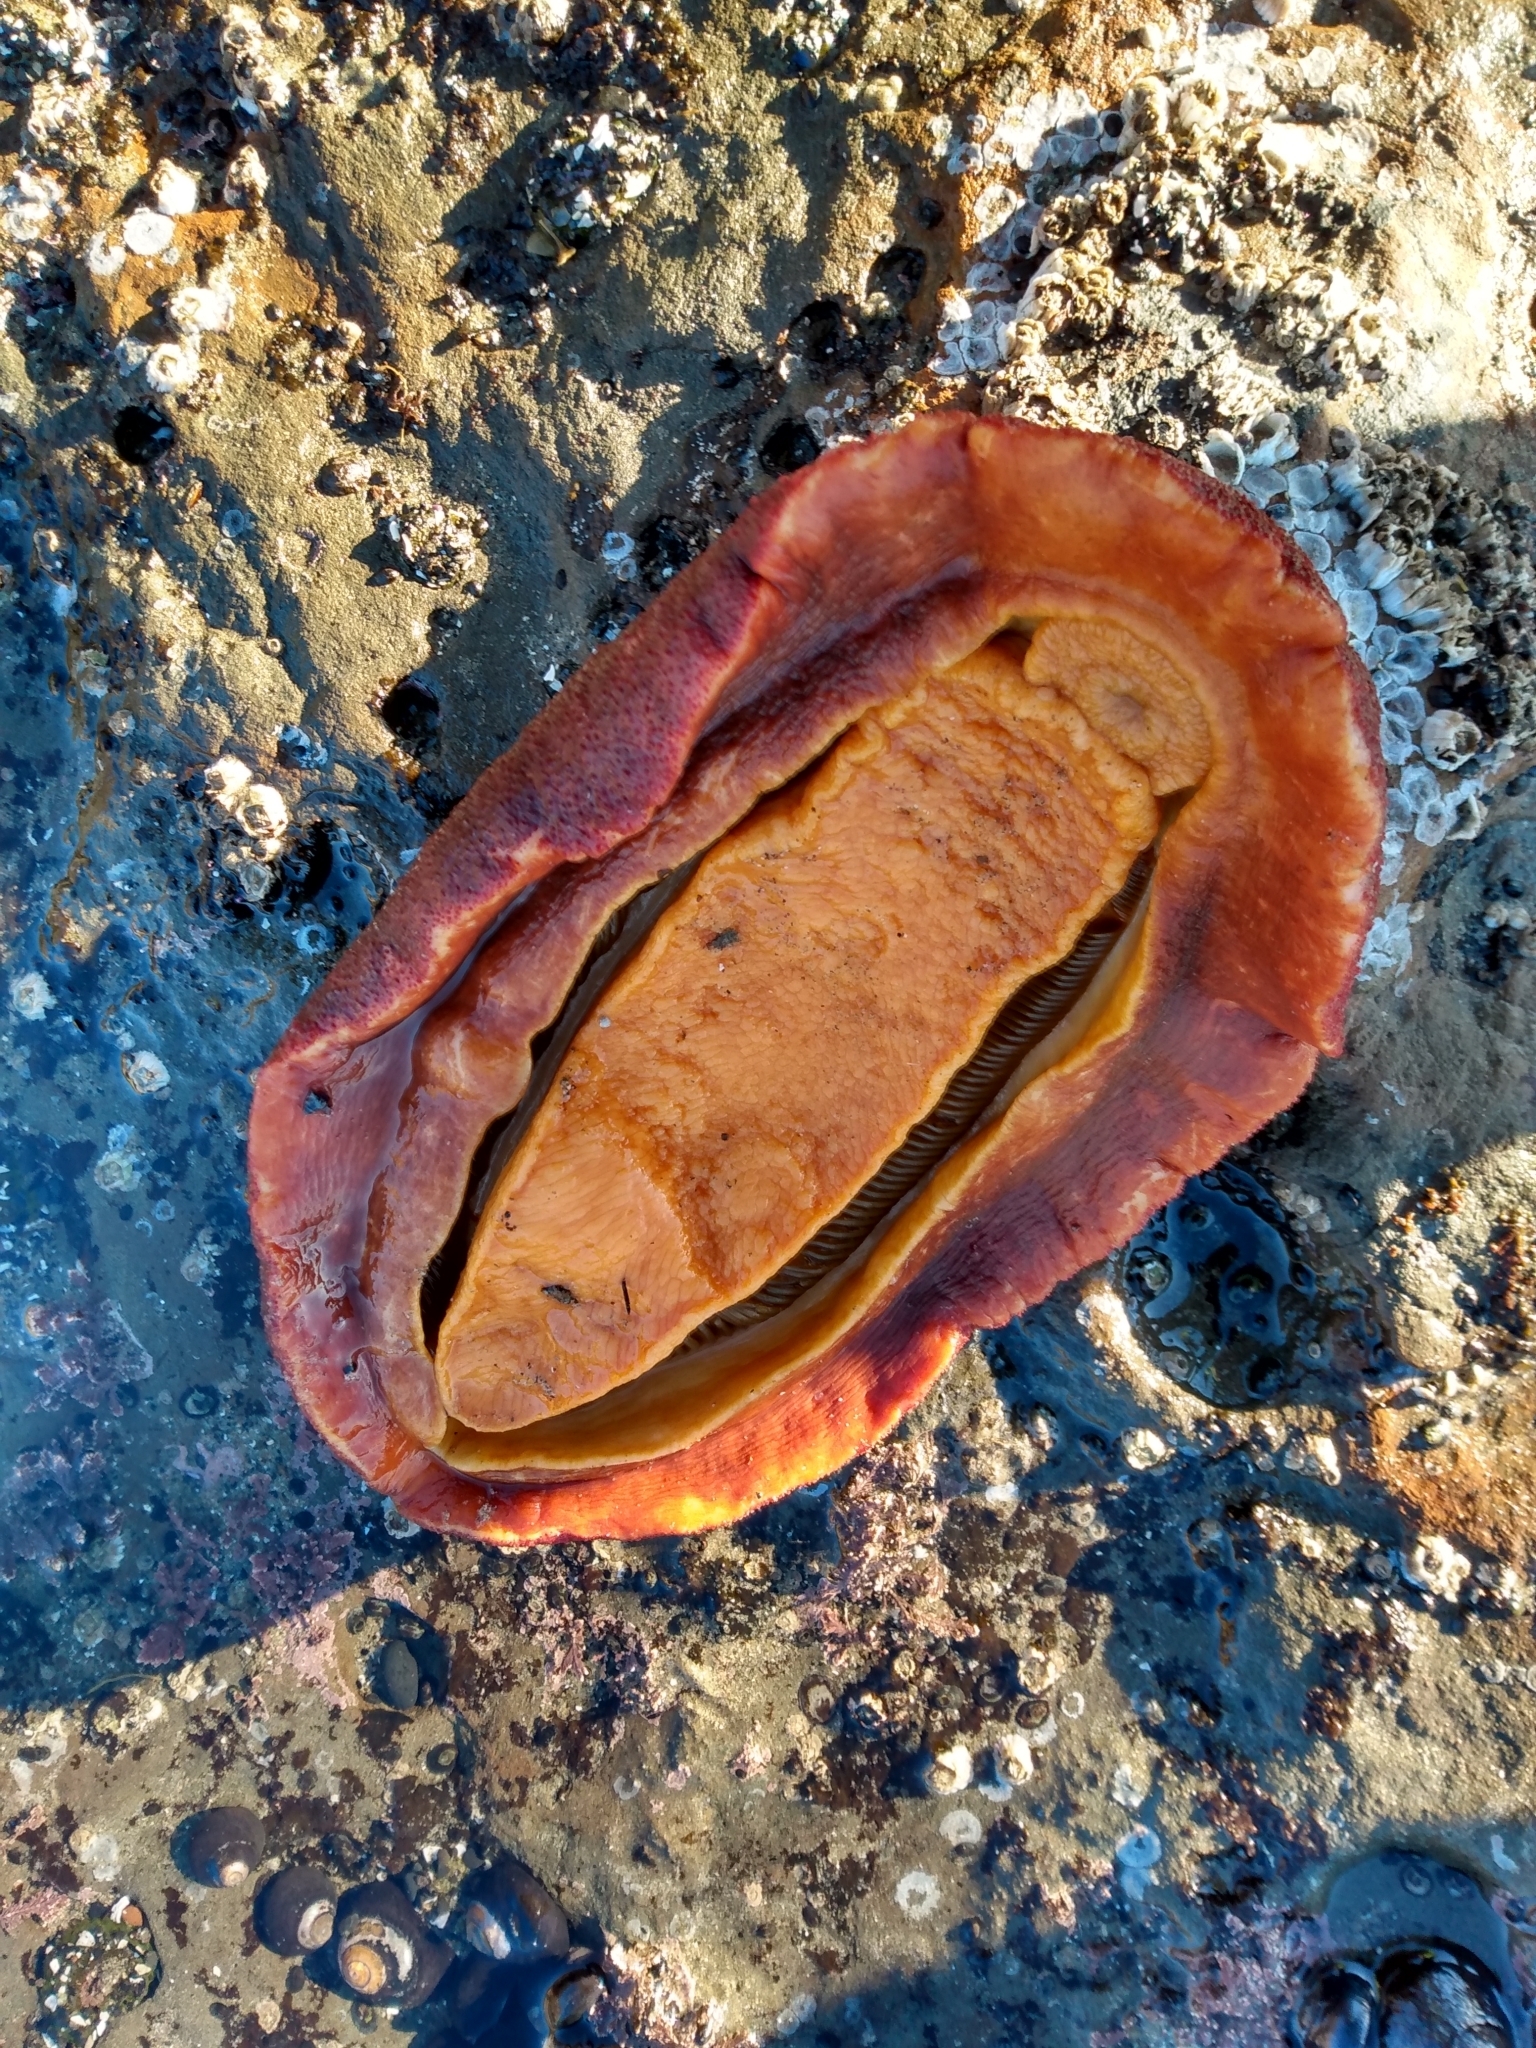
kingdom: Animalia
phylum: Mollusca
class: Polyplacophora
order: Chitonida
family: Acanthochitonidae
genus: Cryptochiton
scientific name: Cryptochiton stelleri
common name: Giant pacific chiton
